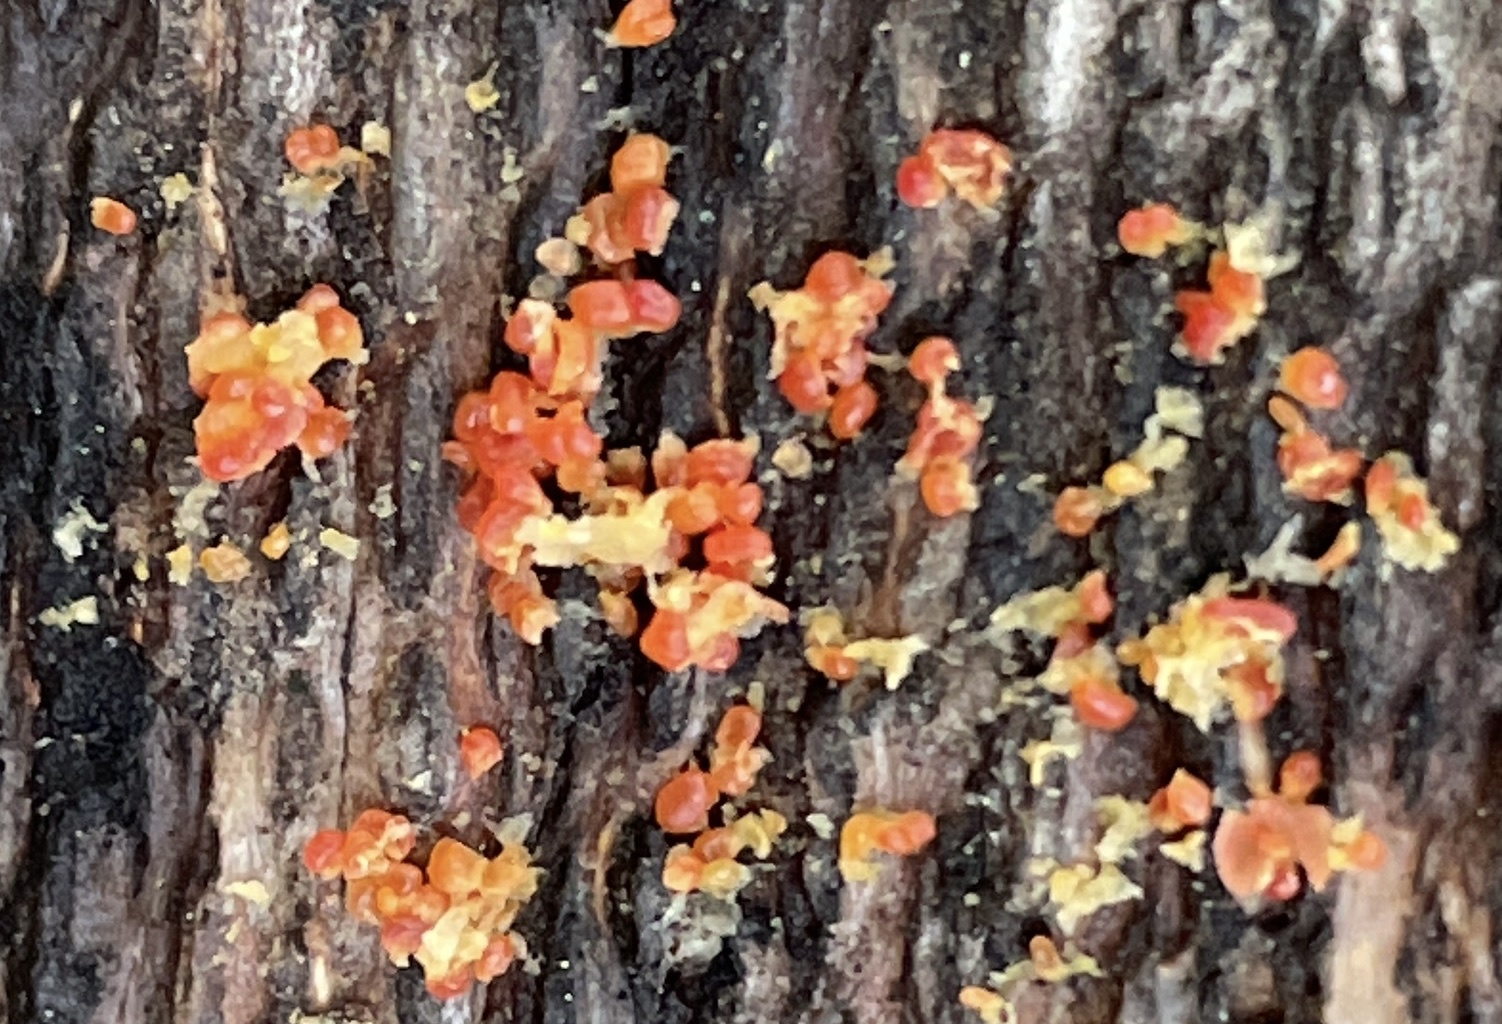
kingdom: Plantae
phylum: Tracheophyta
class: Magnoliopsida
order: Ericales
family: Ericaceae
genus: Arbutus
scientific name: Arbutus menziesii
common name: Pacific madrone
